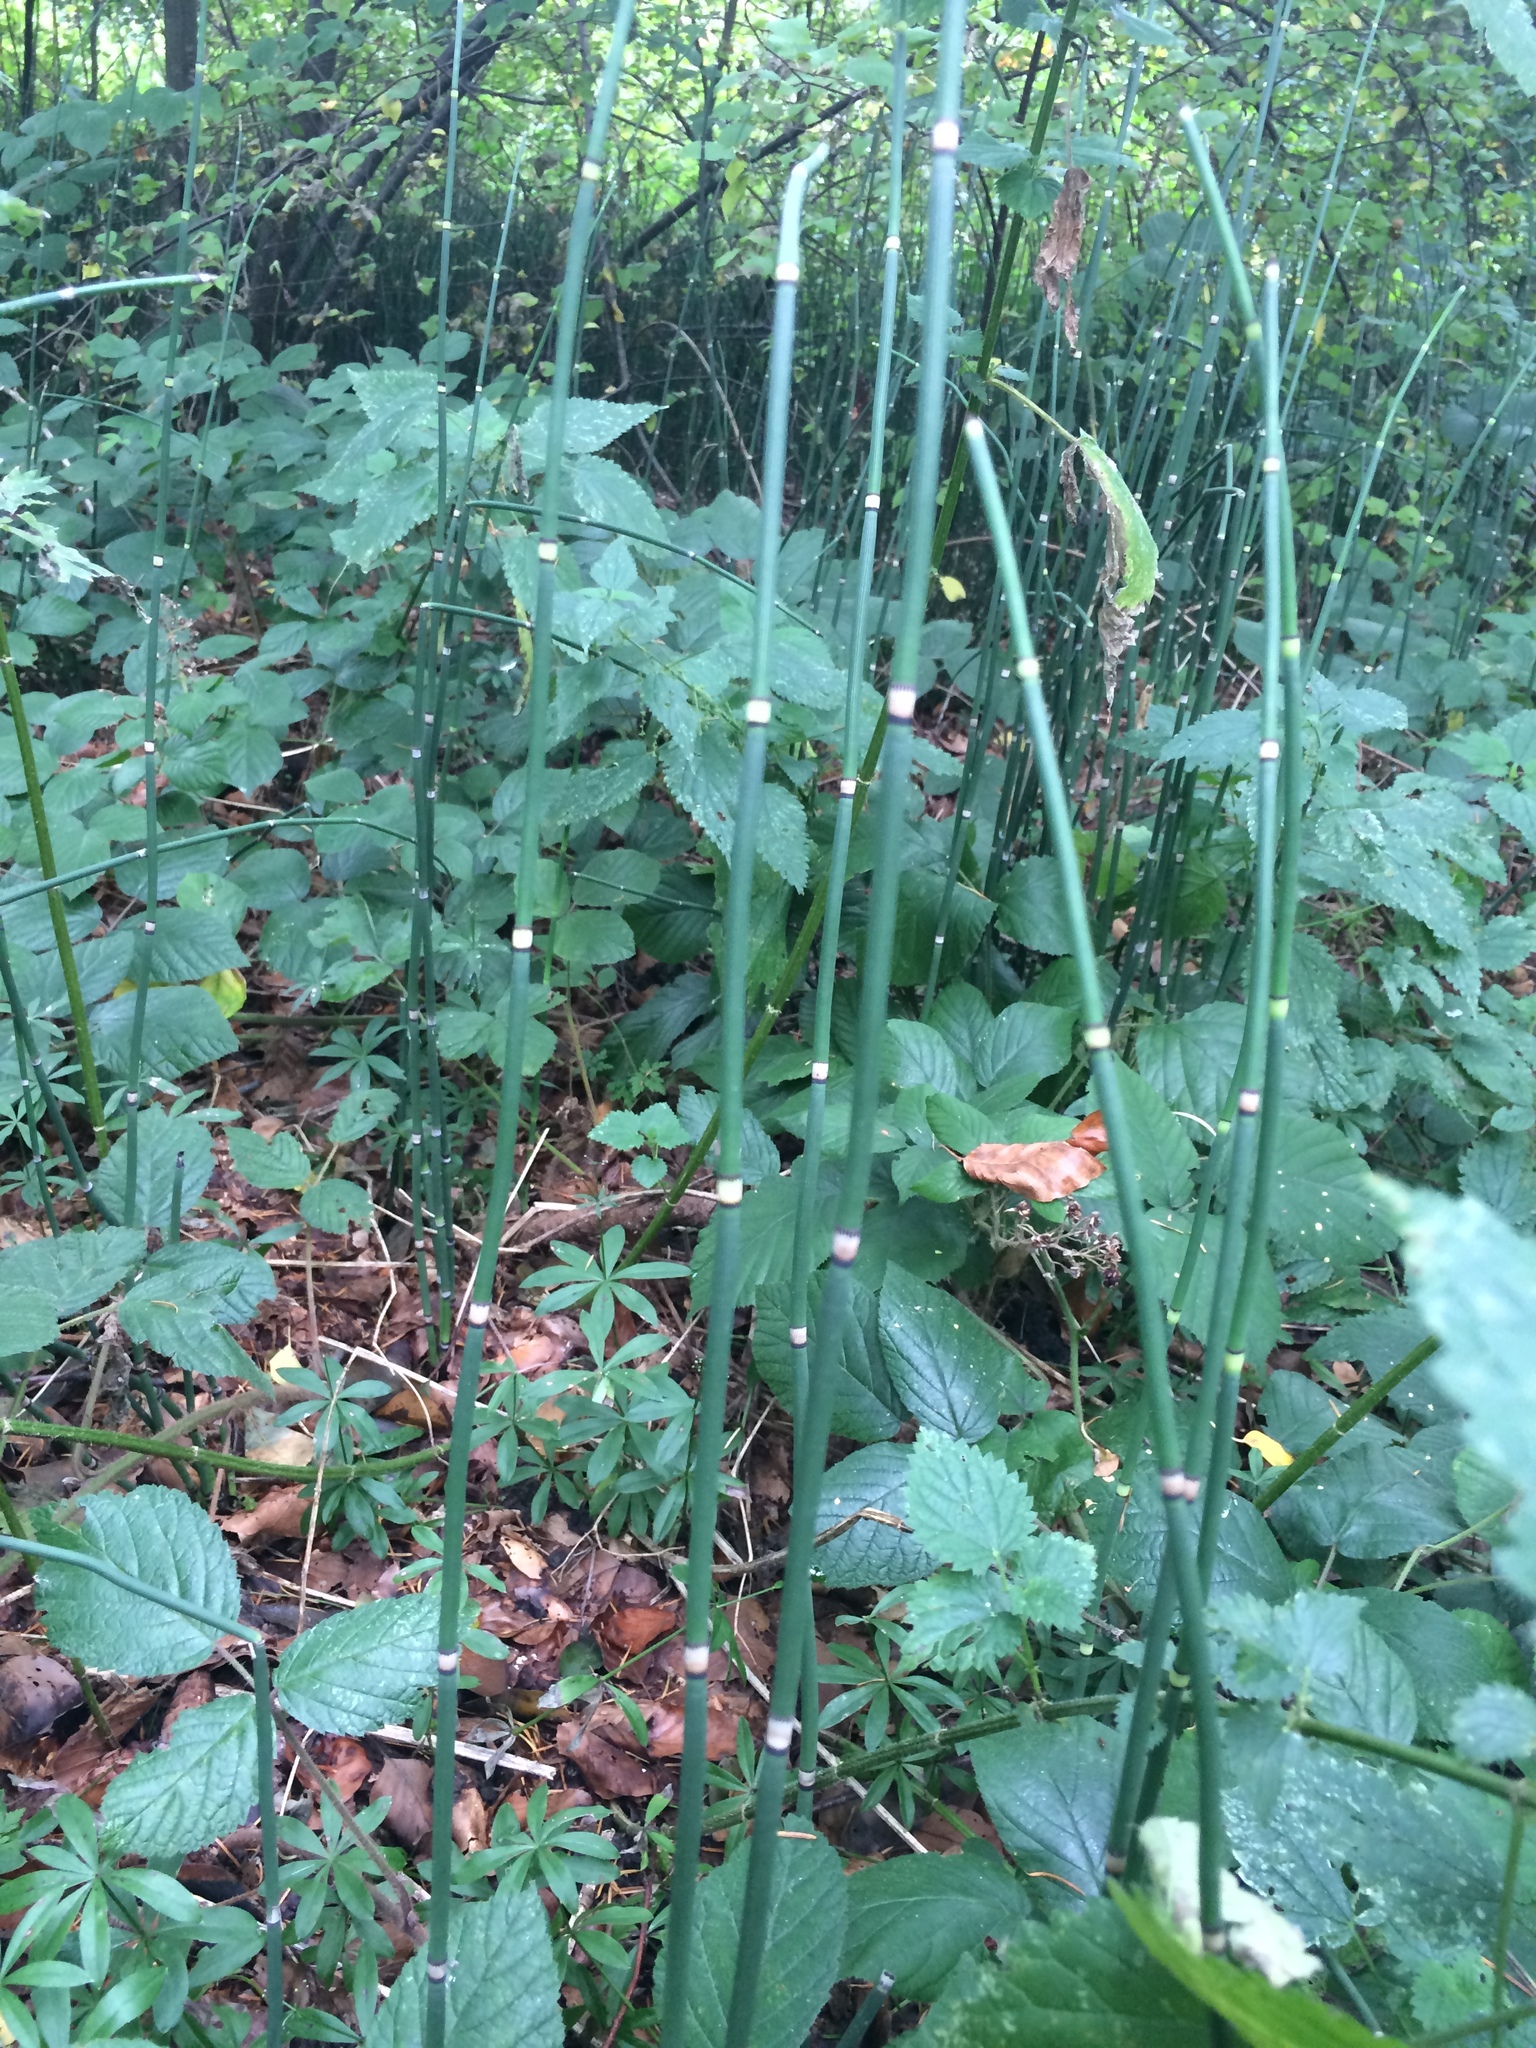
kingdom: Plantae
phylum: Tracheophyta
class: Polypodiopsida
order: Equisetales
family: Equisetaceae
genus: Equisetum
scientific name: Equisetum hyemale
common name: Rough horsetail
